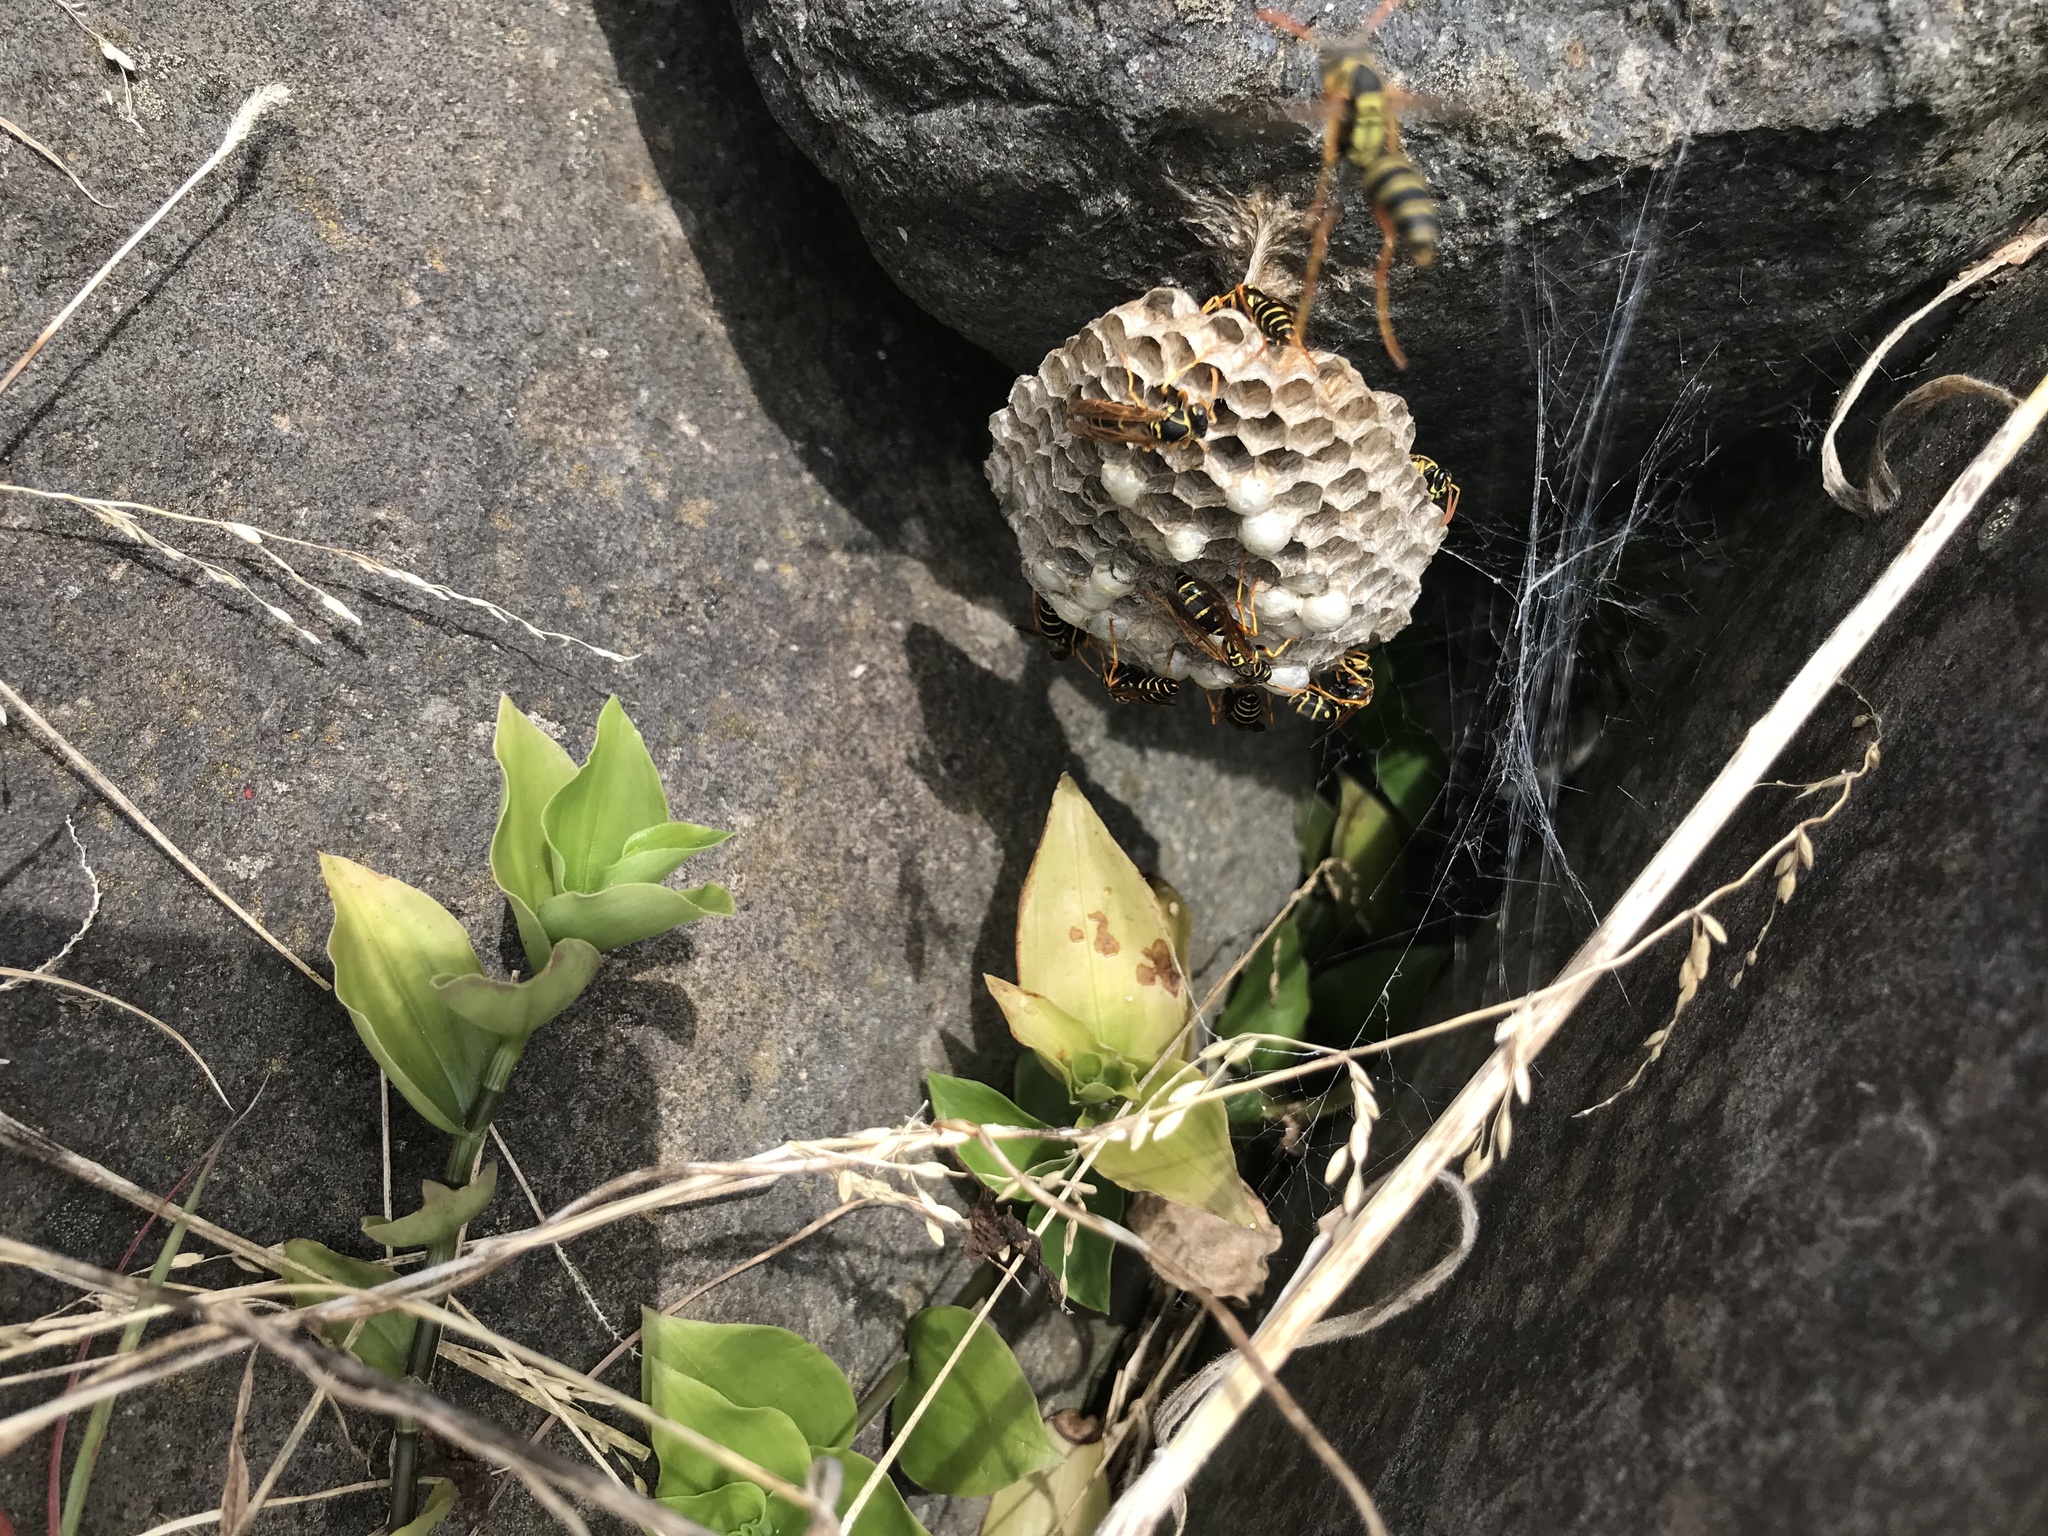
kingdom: Animalia
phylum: Arthropoda
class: Insecta
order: Hymenoptera
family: Eumenidae
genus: Polistes
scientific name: Polistes chinensis
